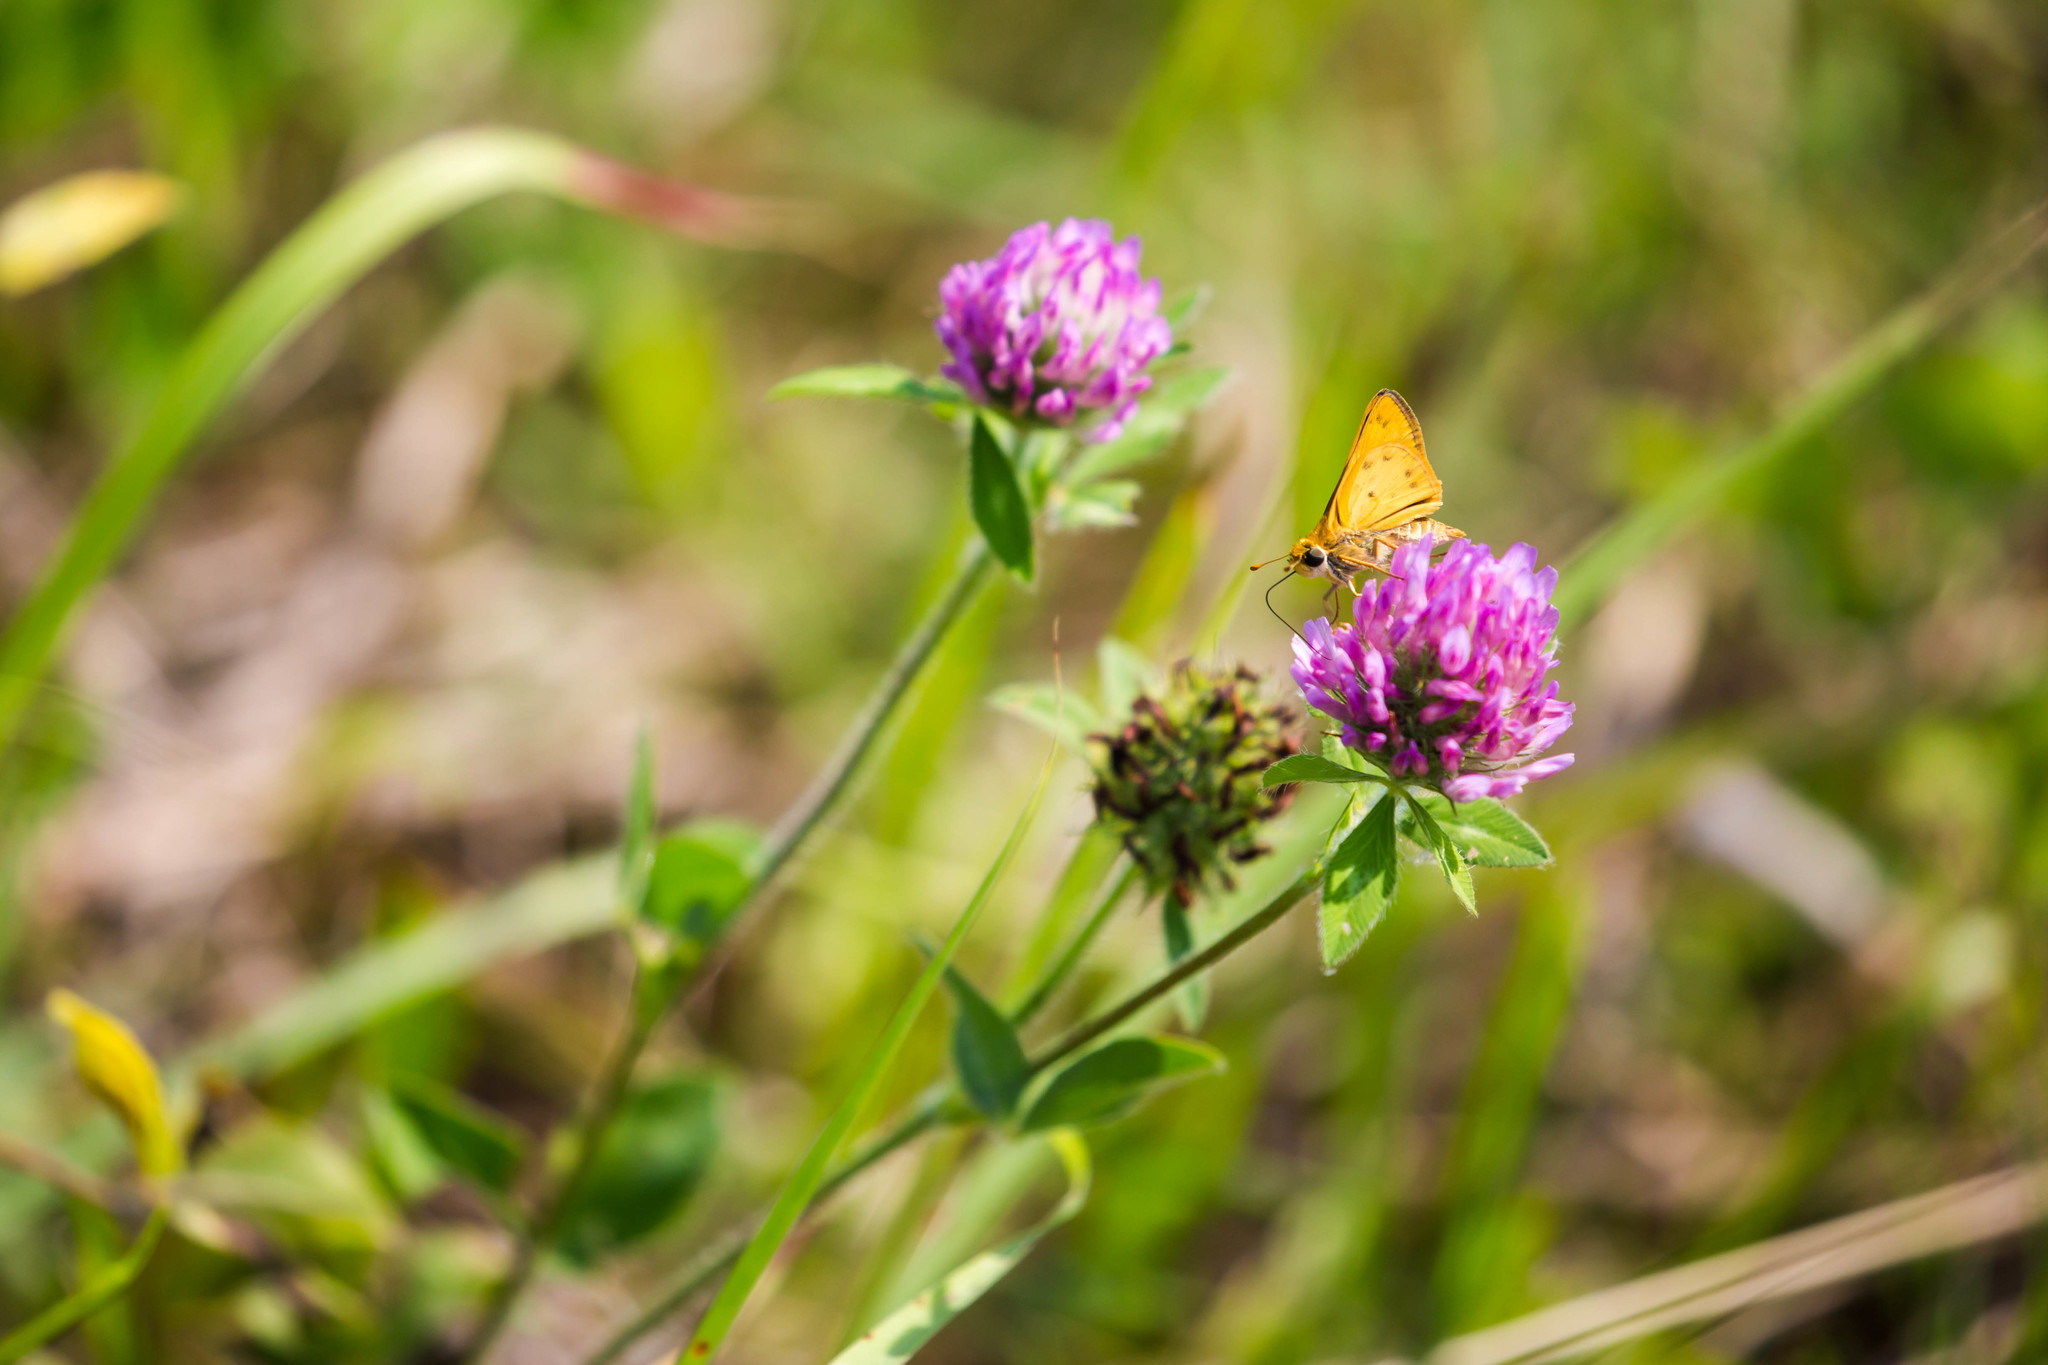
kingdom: Animalia
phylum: Arthropoda
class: Insecta
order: Lepidoptera
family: Hesperiidae
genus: Hylephila
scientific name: Hylephila phyleus
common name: Fiery skipper
